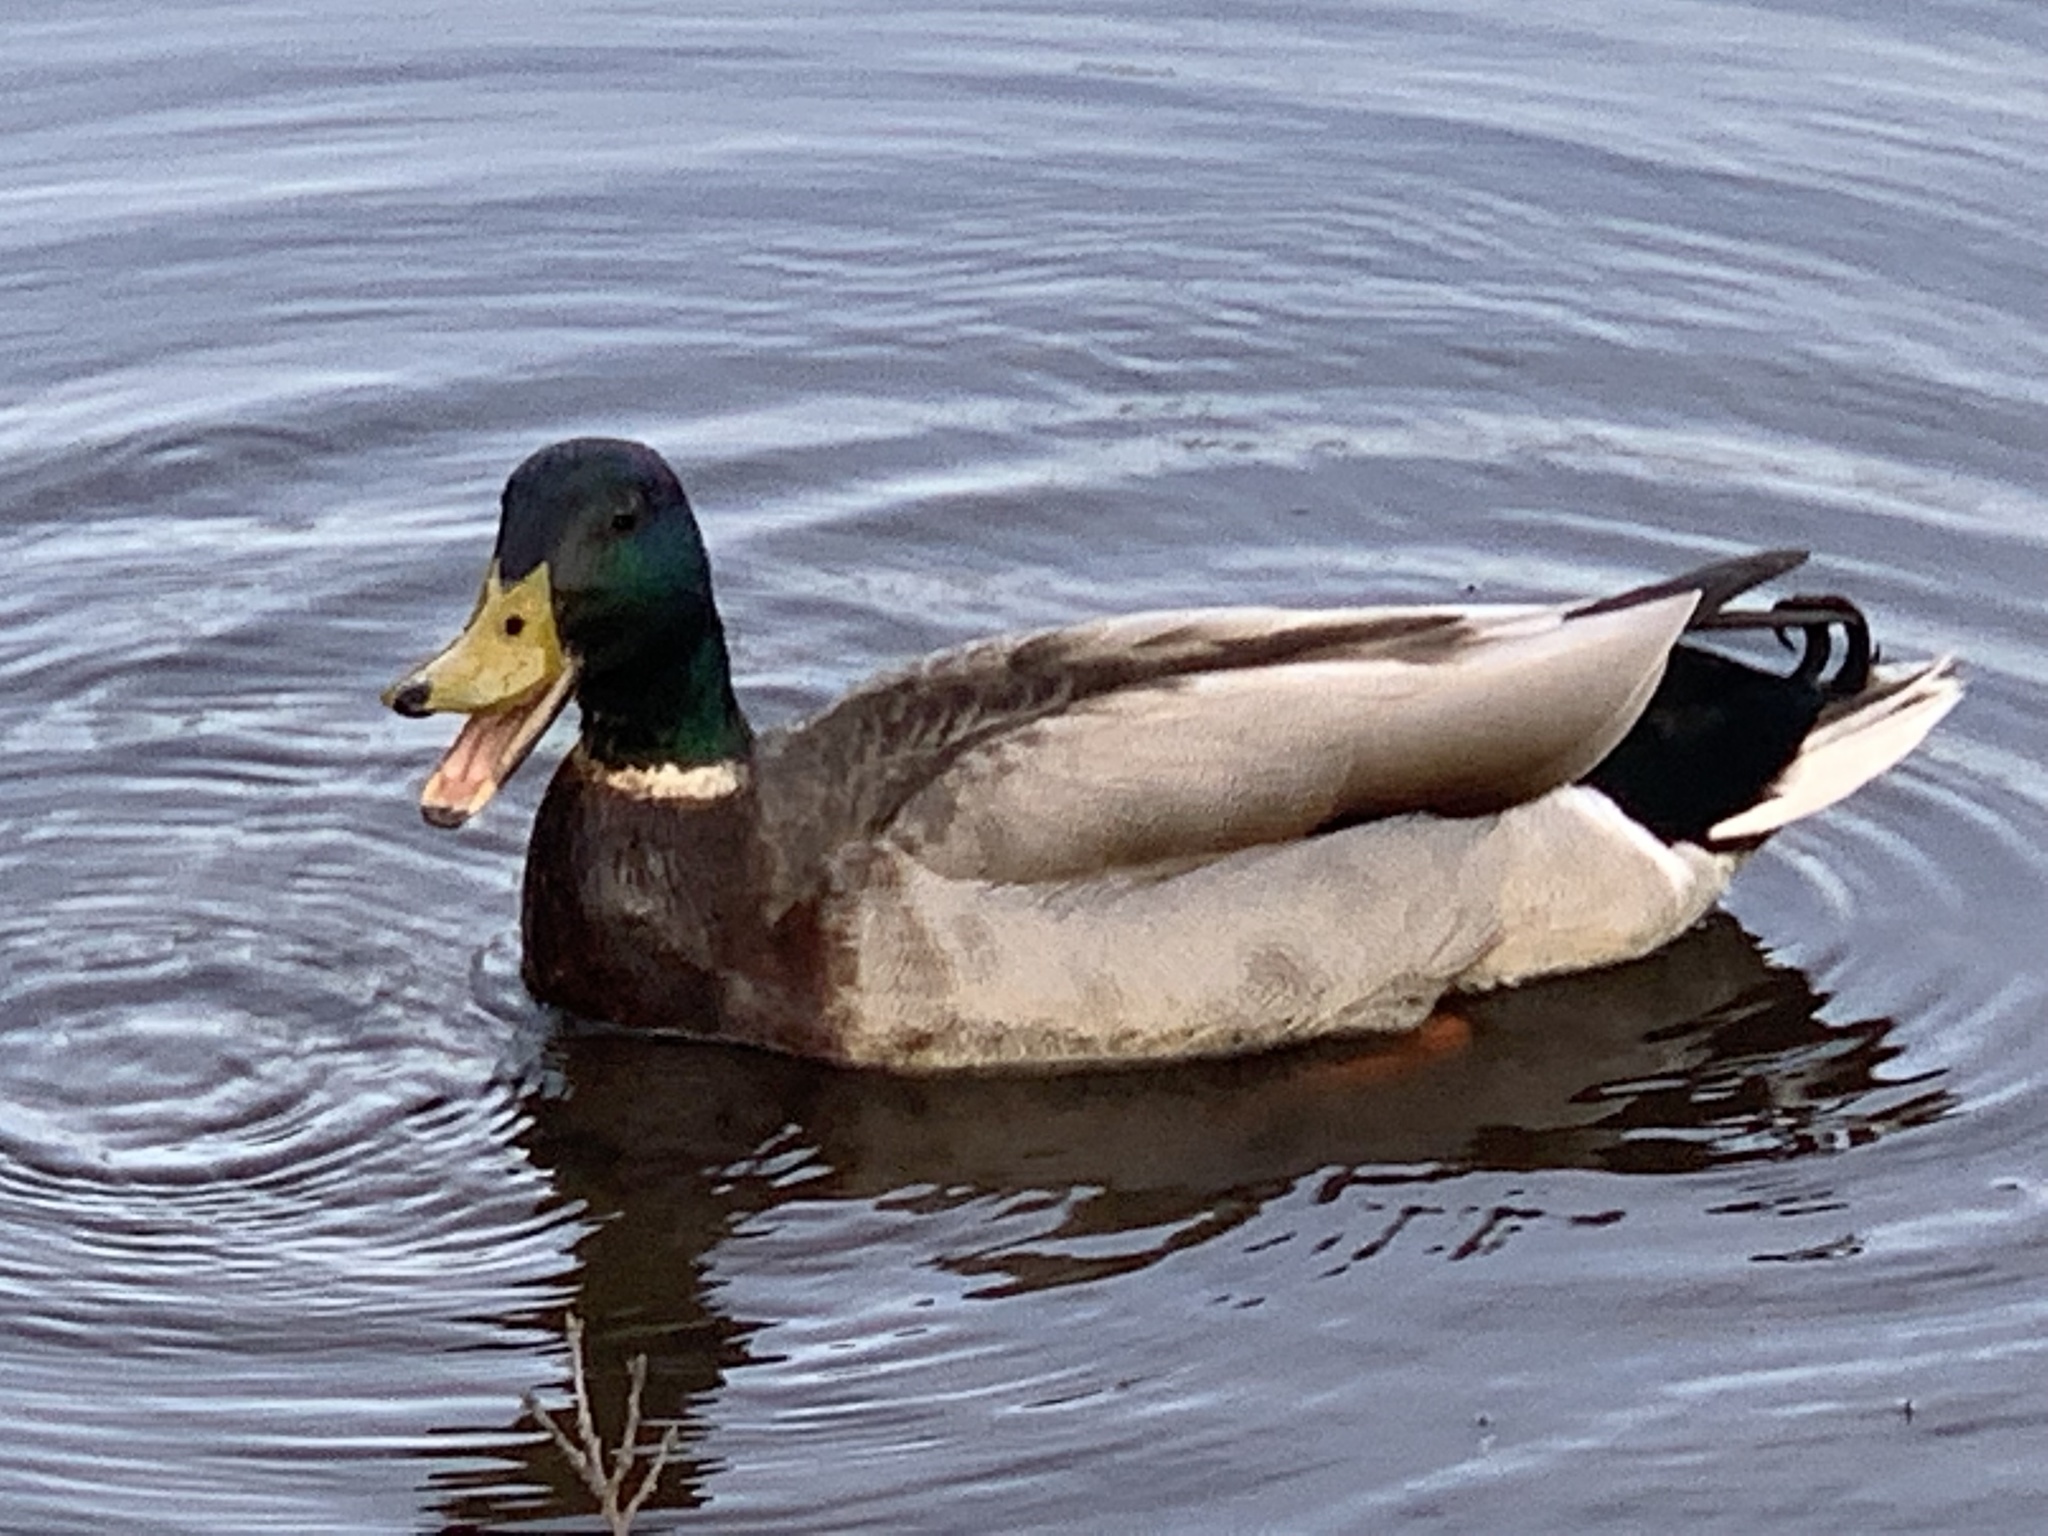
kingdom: Animalia
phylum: Chordata
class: Aves
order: Anseriformes
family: Anatidae
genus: Anas
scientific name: Anas platyrhynchos
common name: Mallard
